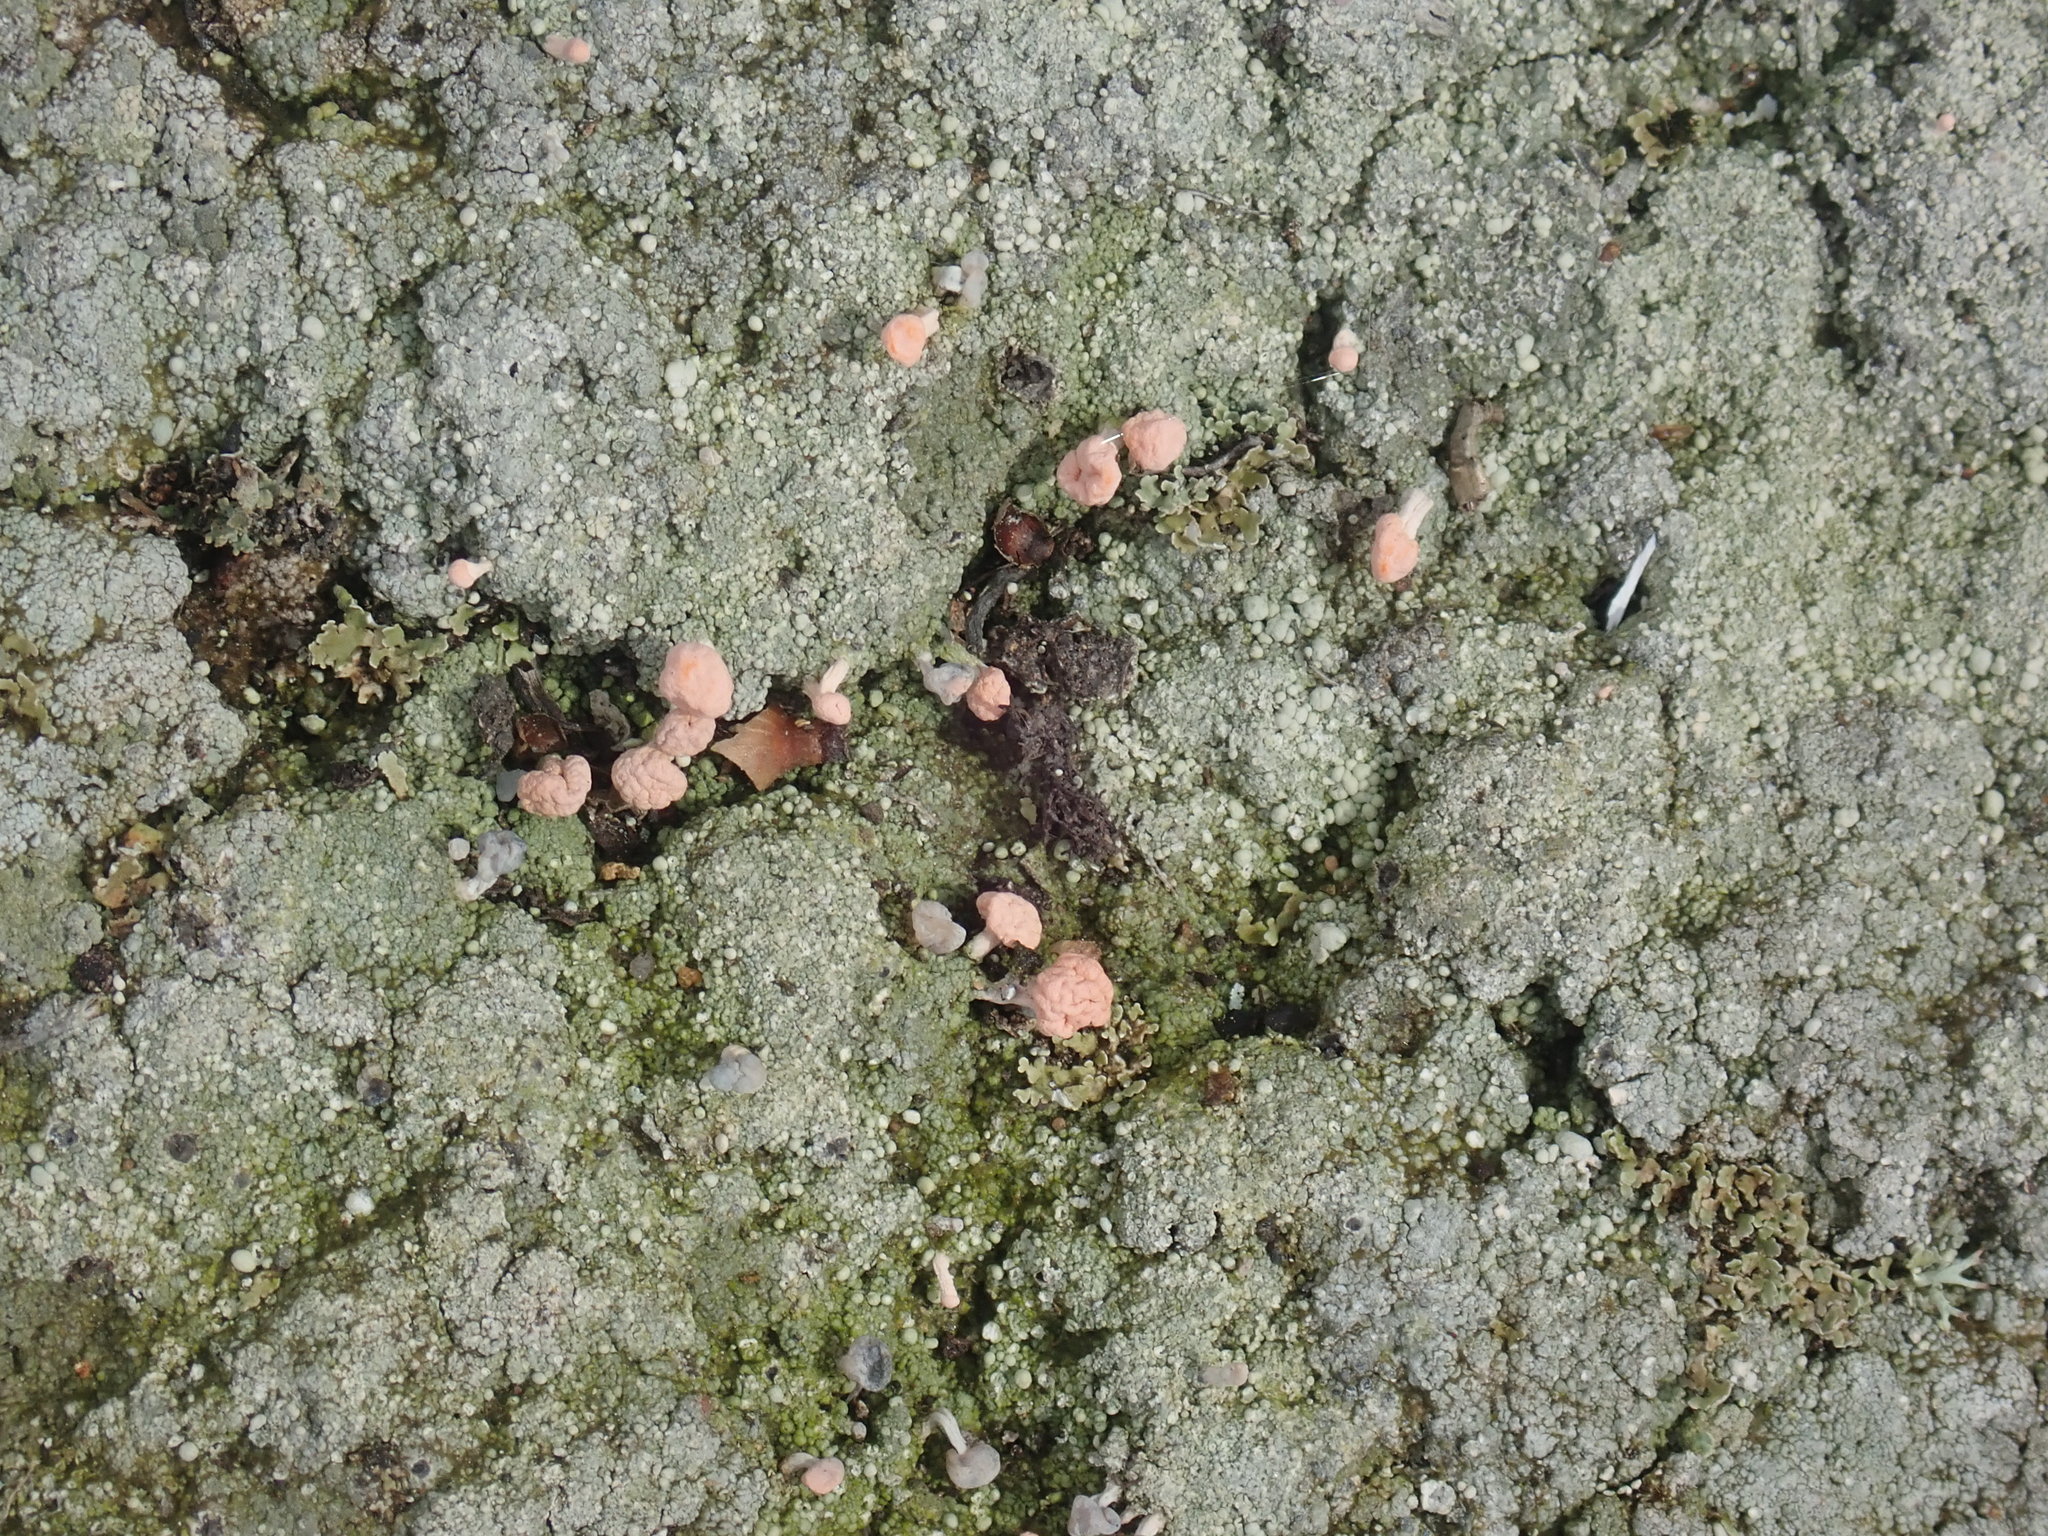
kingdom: Fungi
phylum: Ascomycota
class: Lecanoromycetes
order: Pertusariales
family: Icmadophilaceae
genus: Dibaeis
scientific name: Dibaeis baeomyces
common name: Pink earth lichen
